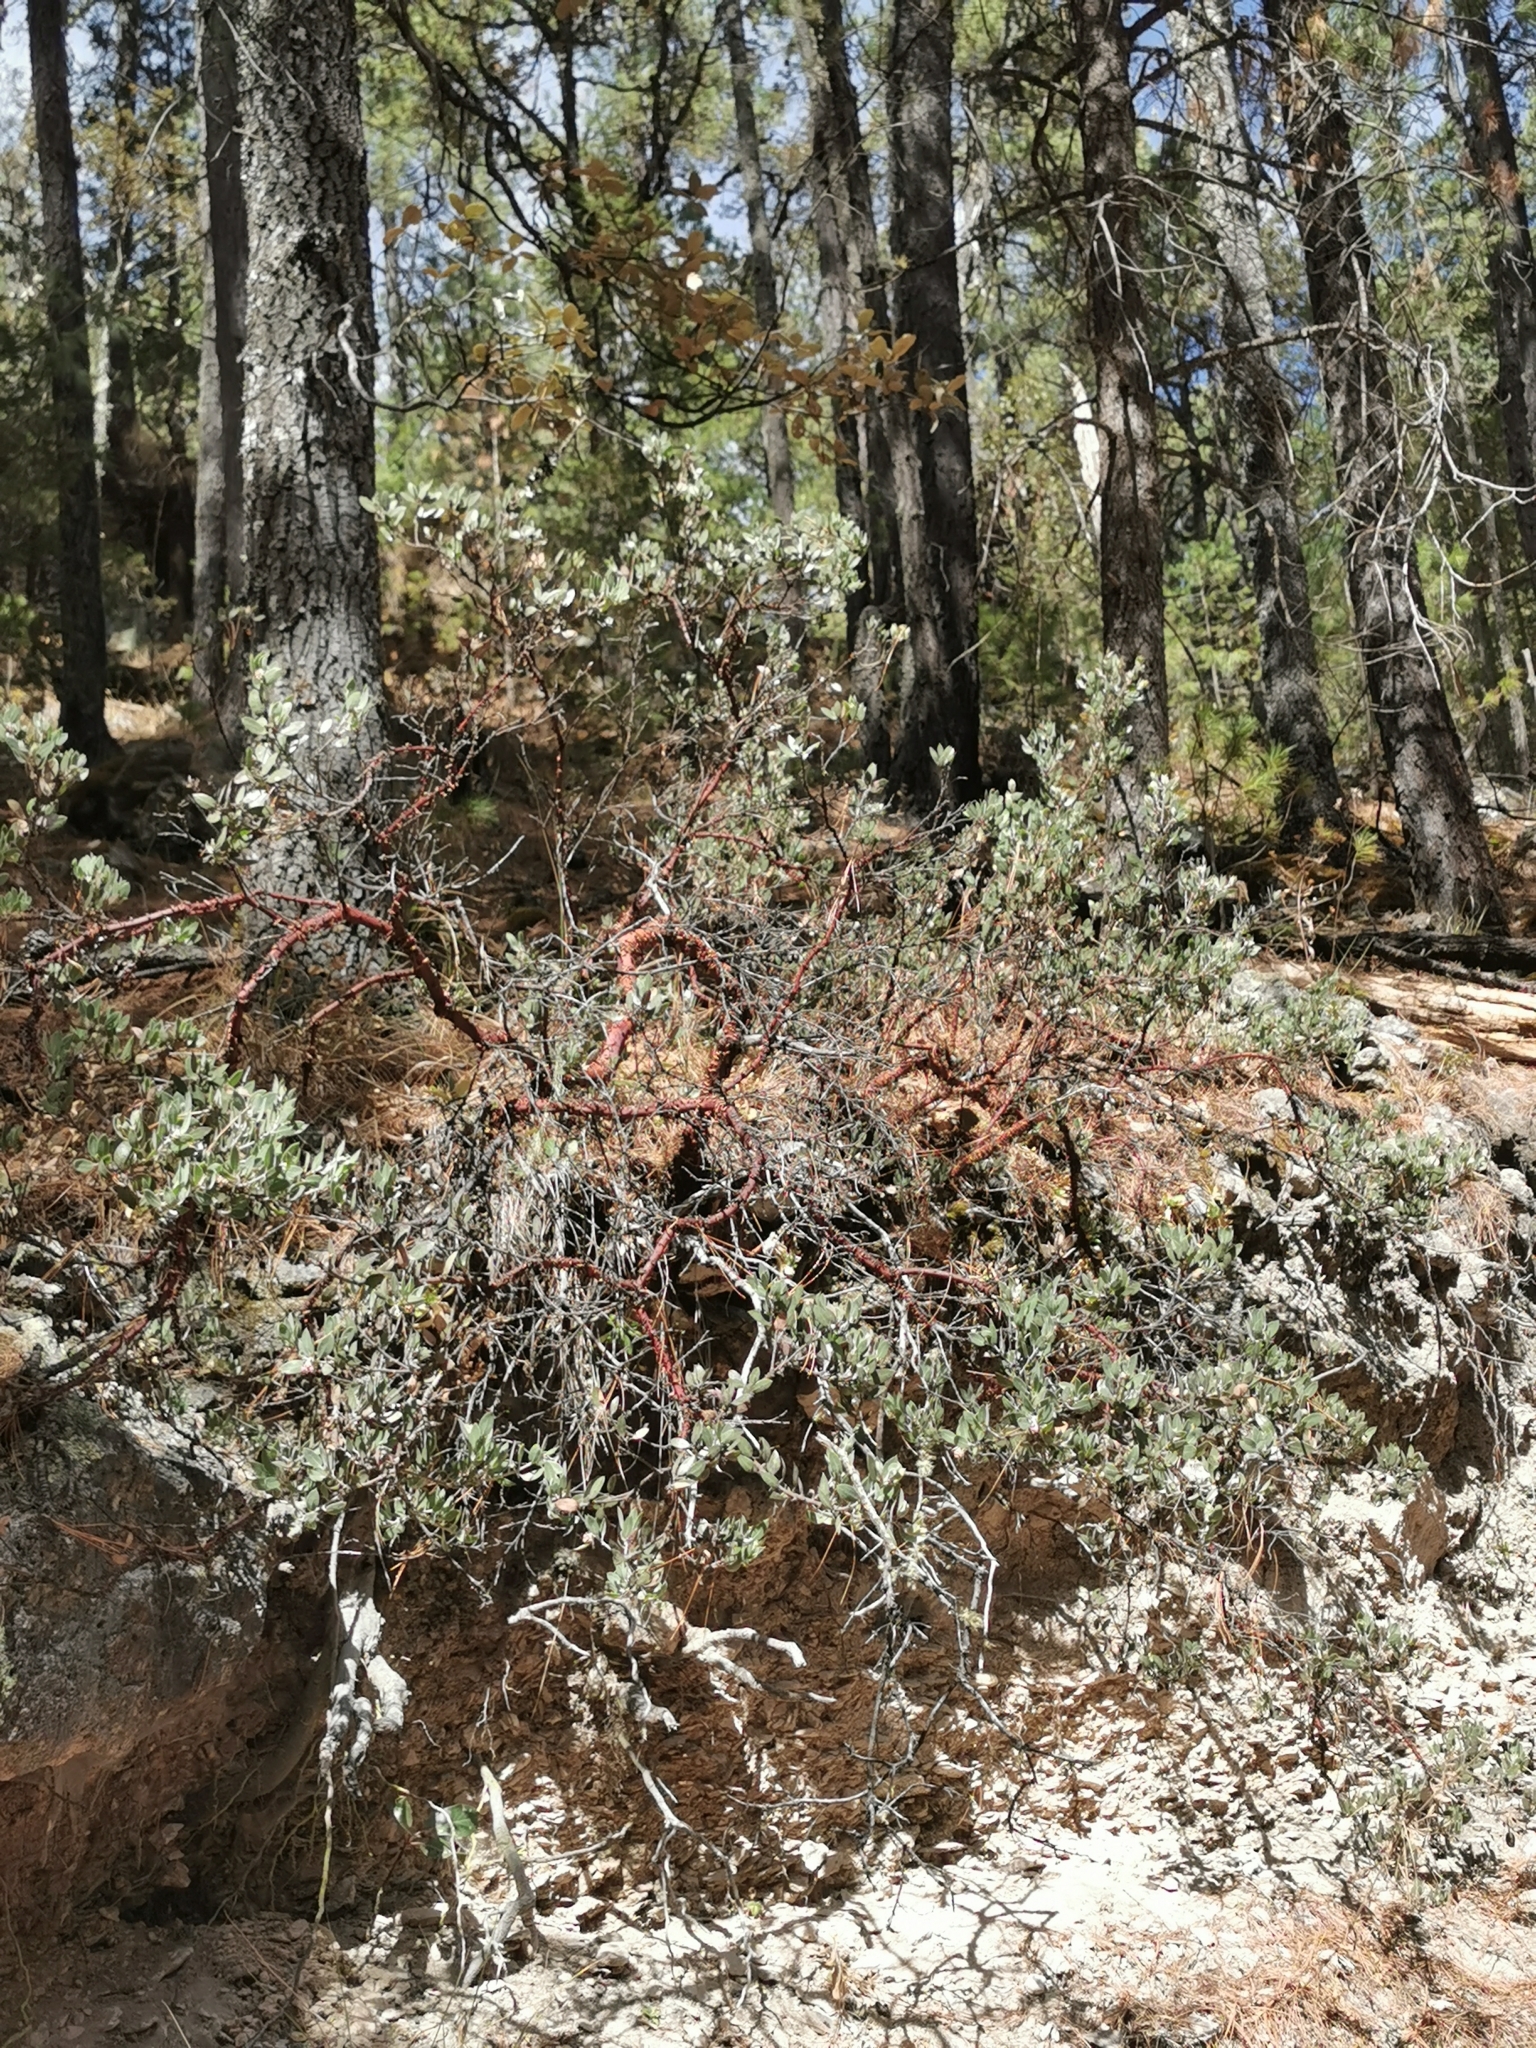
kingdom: Plantae
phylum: Tracheophyta
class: Magnoliopsida
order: Ericales
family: Ericaceae
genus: Arctostaphylos
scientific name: Arctostaphylos pungens
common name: Mexican manzanita
